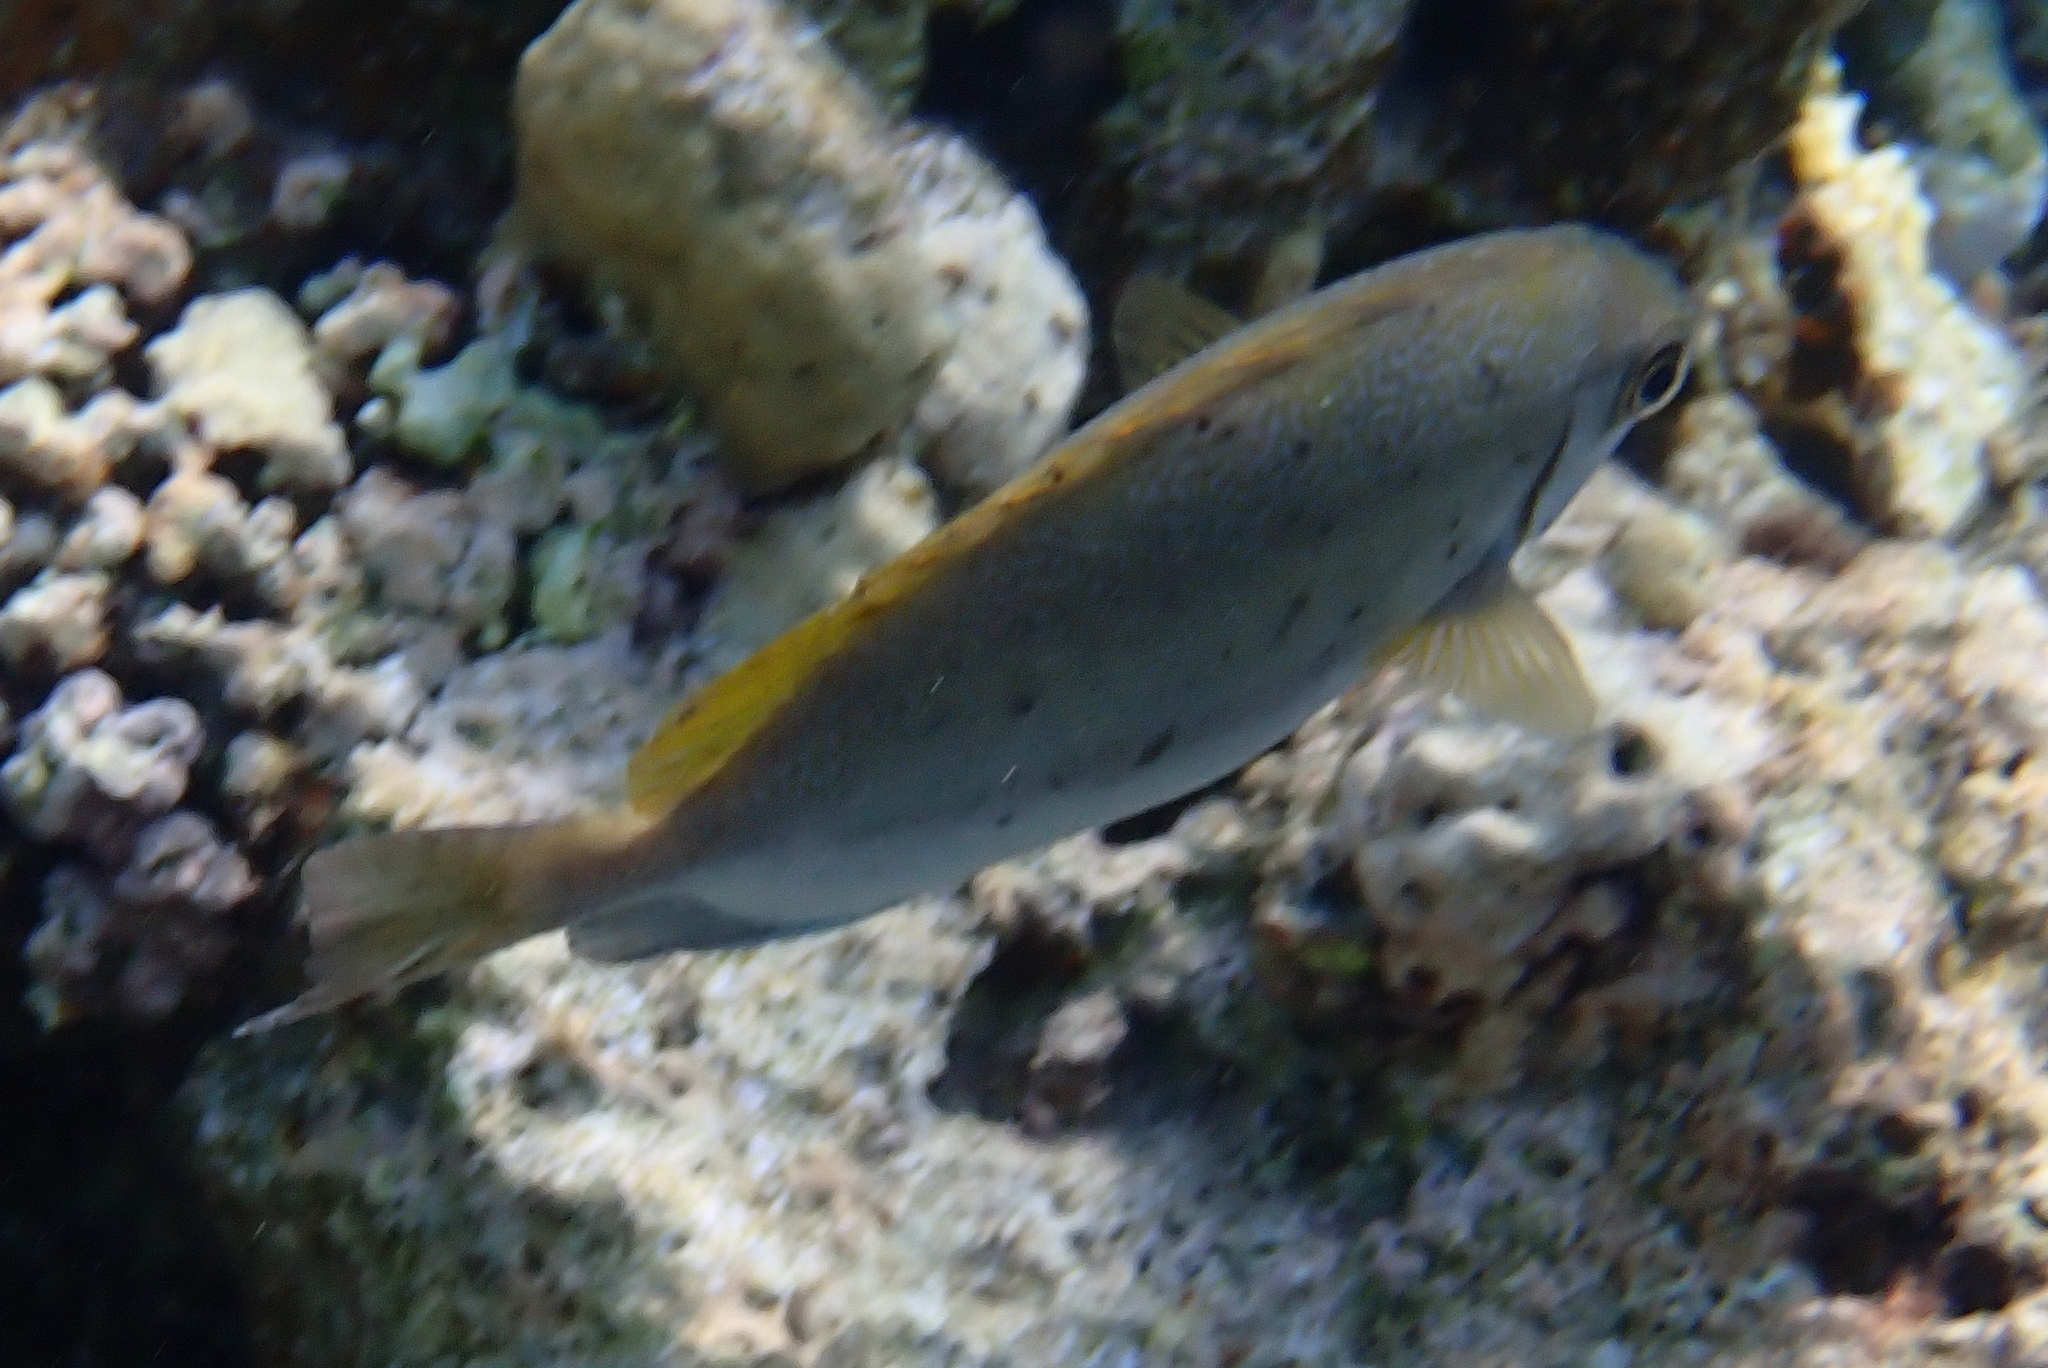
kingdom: Animalia
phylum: Chordata
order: Perciformes
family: Siganidae
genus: Siganus
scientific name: Siganus luridus
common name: Dusky spinefoot
